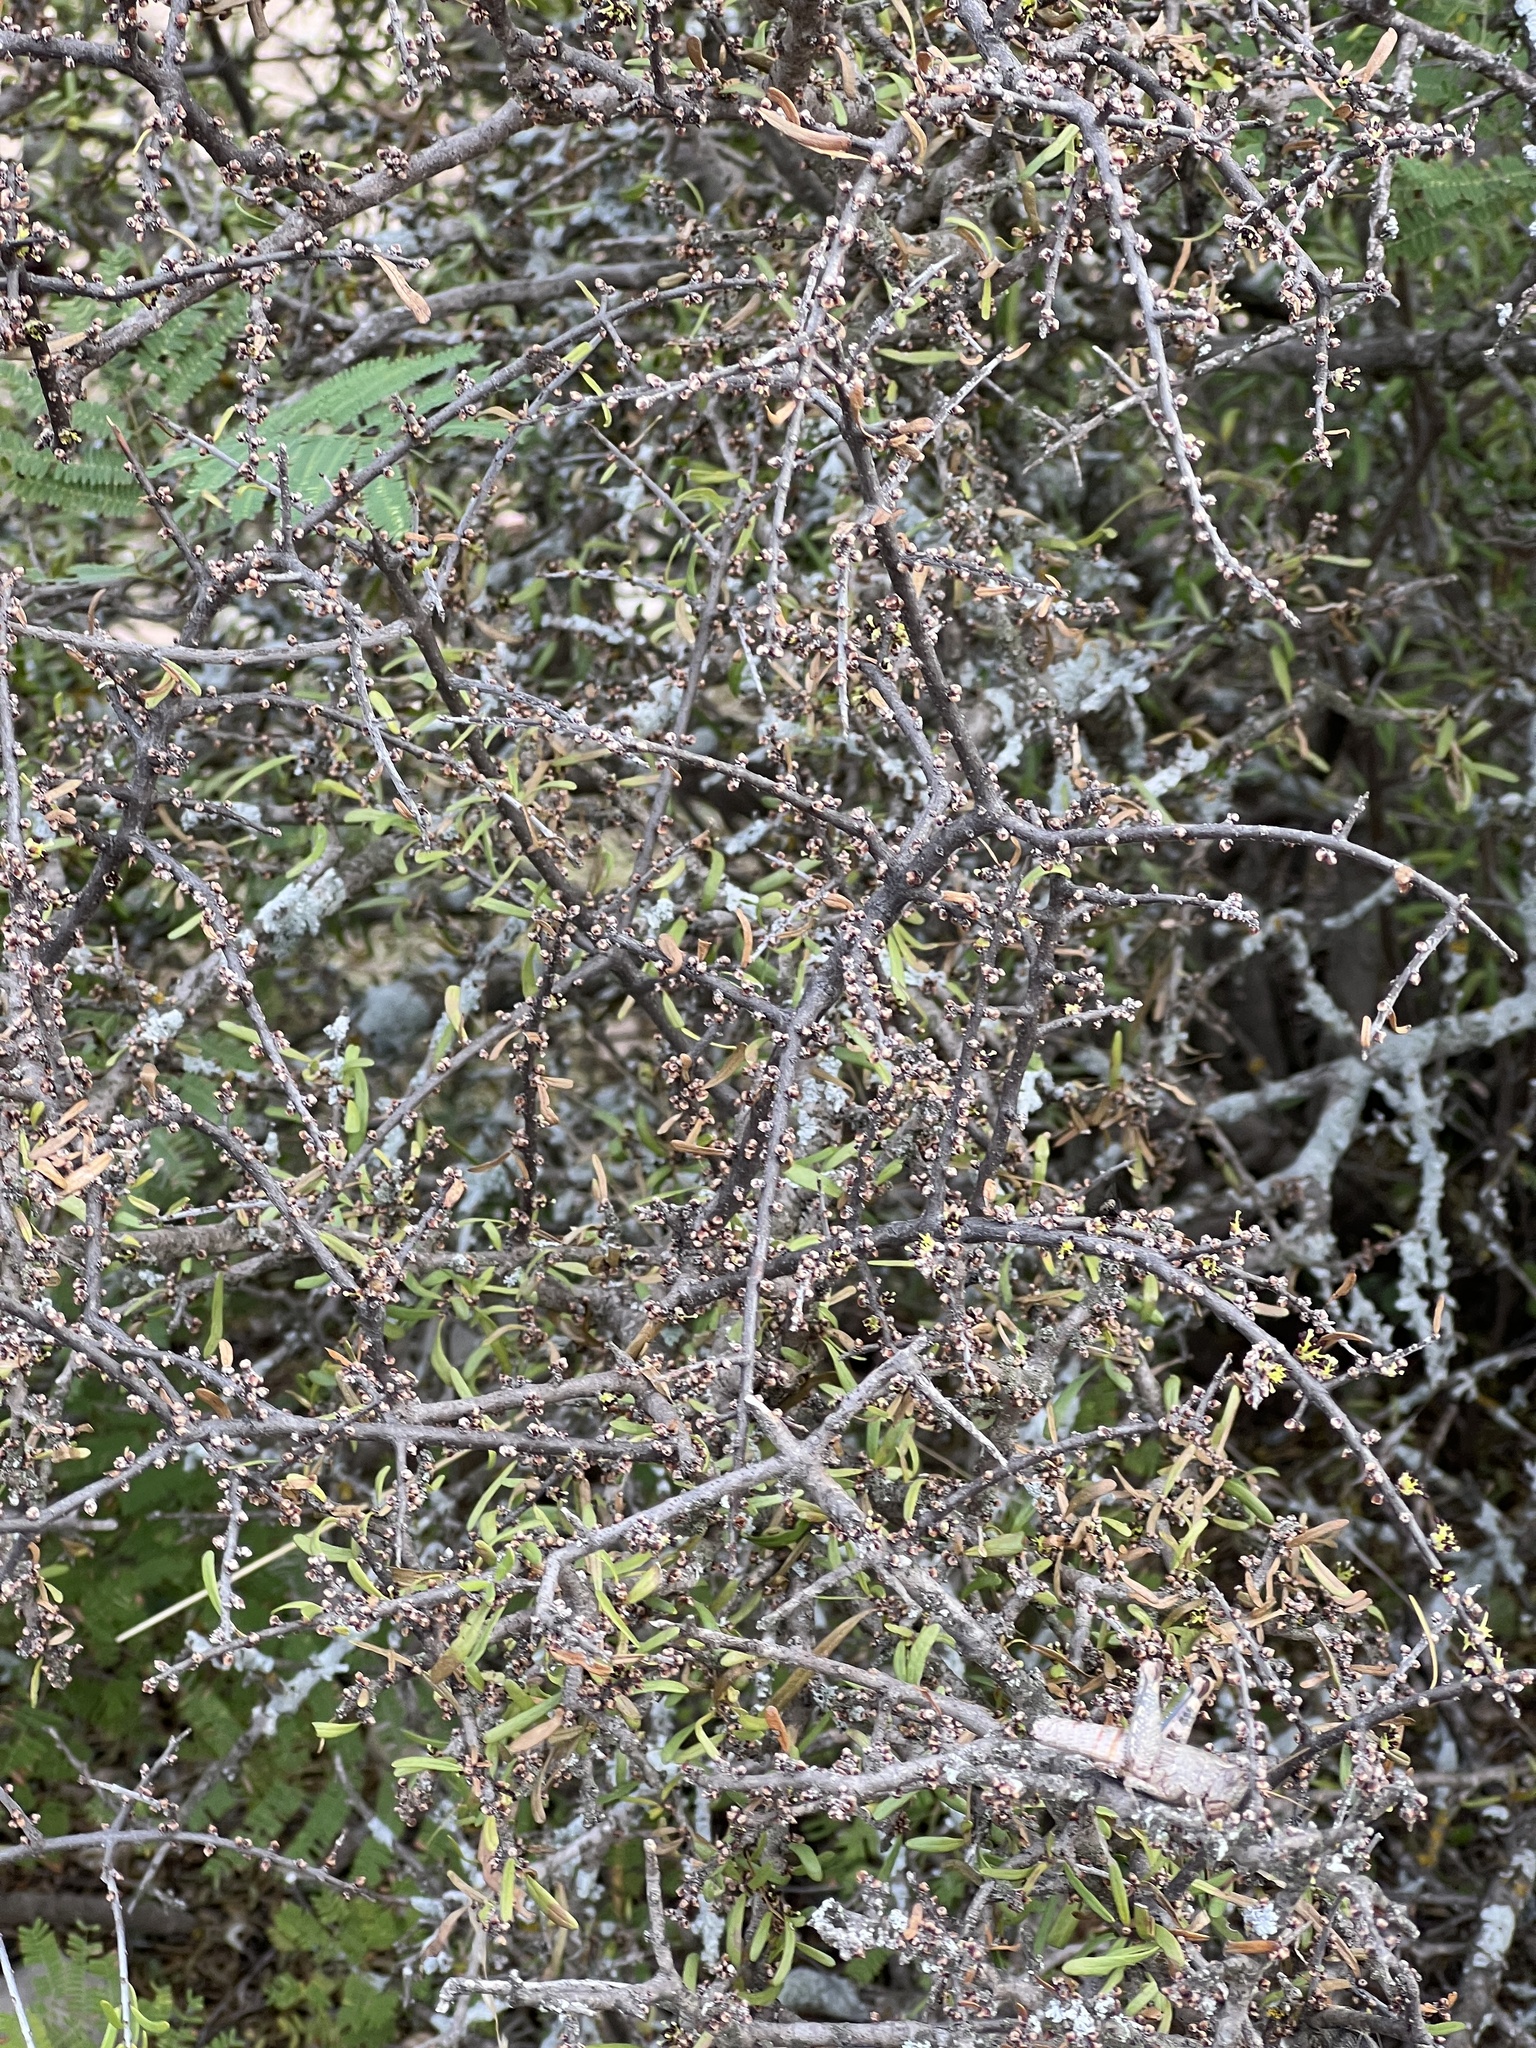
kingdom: Plantae
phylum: Tracheophyta
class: Magnoliopsida
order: Lamiales
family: Oleaceae
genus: Forestiera
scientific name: Forestiera angustifolia
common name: Elbowbush
